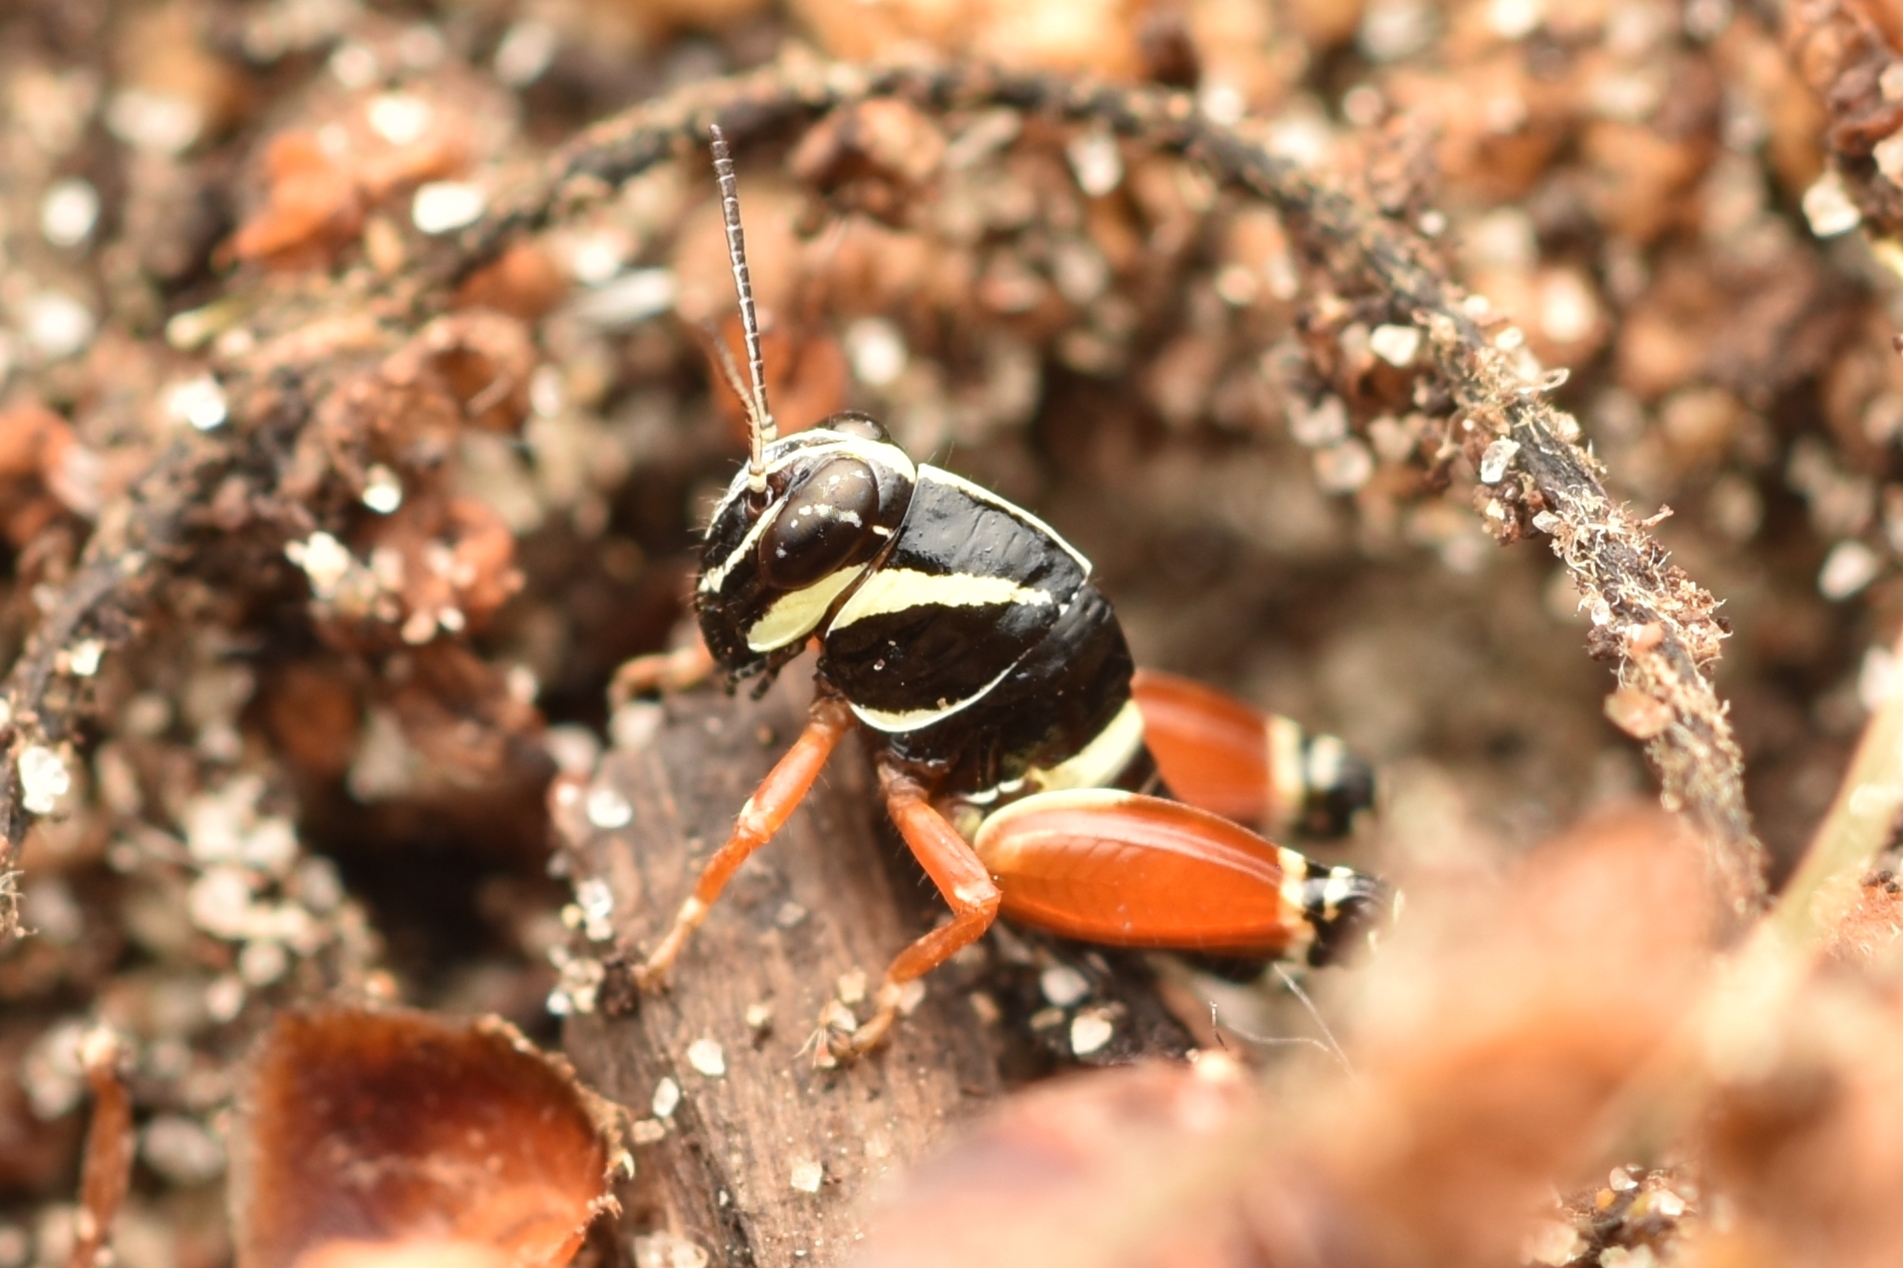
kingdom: Animalia
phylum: Arthropoda
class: Insecta
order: Orthoptera
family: Acrididae
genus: Aidemona
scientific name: Aidemona azteca
